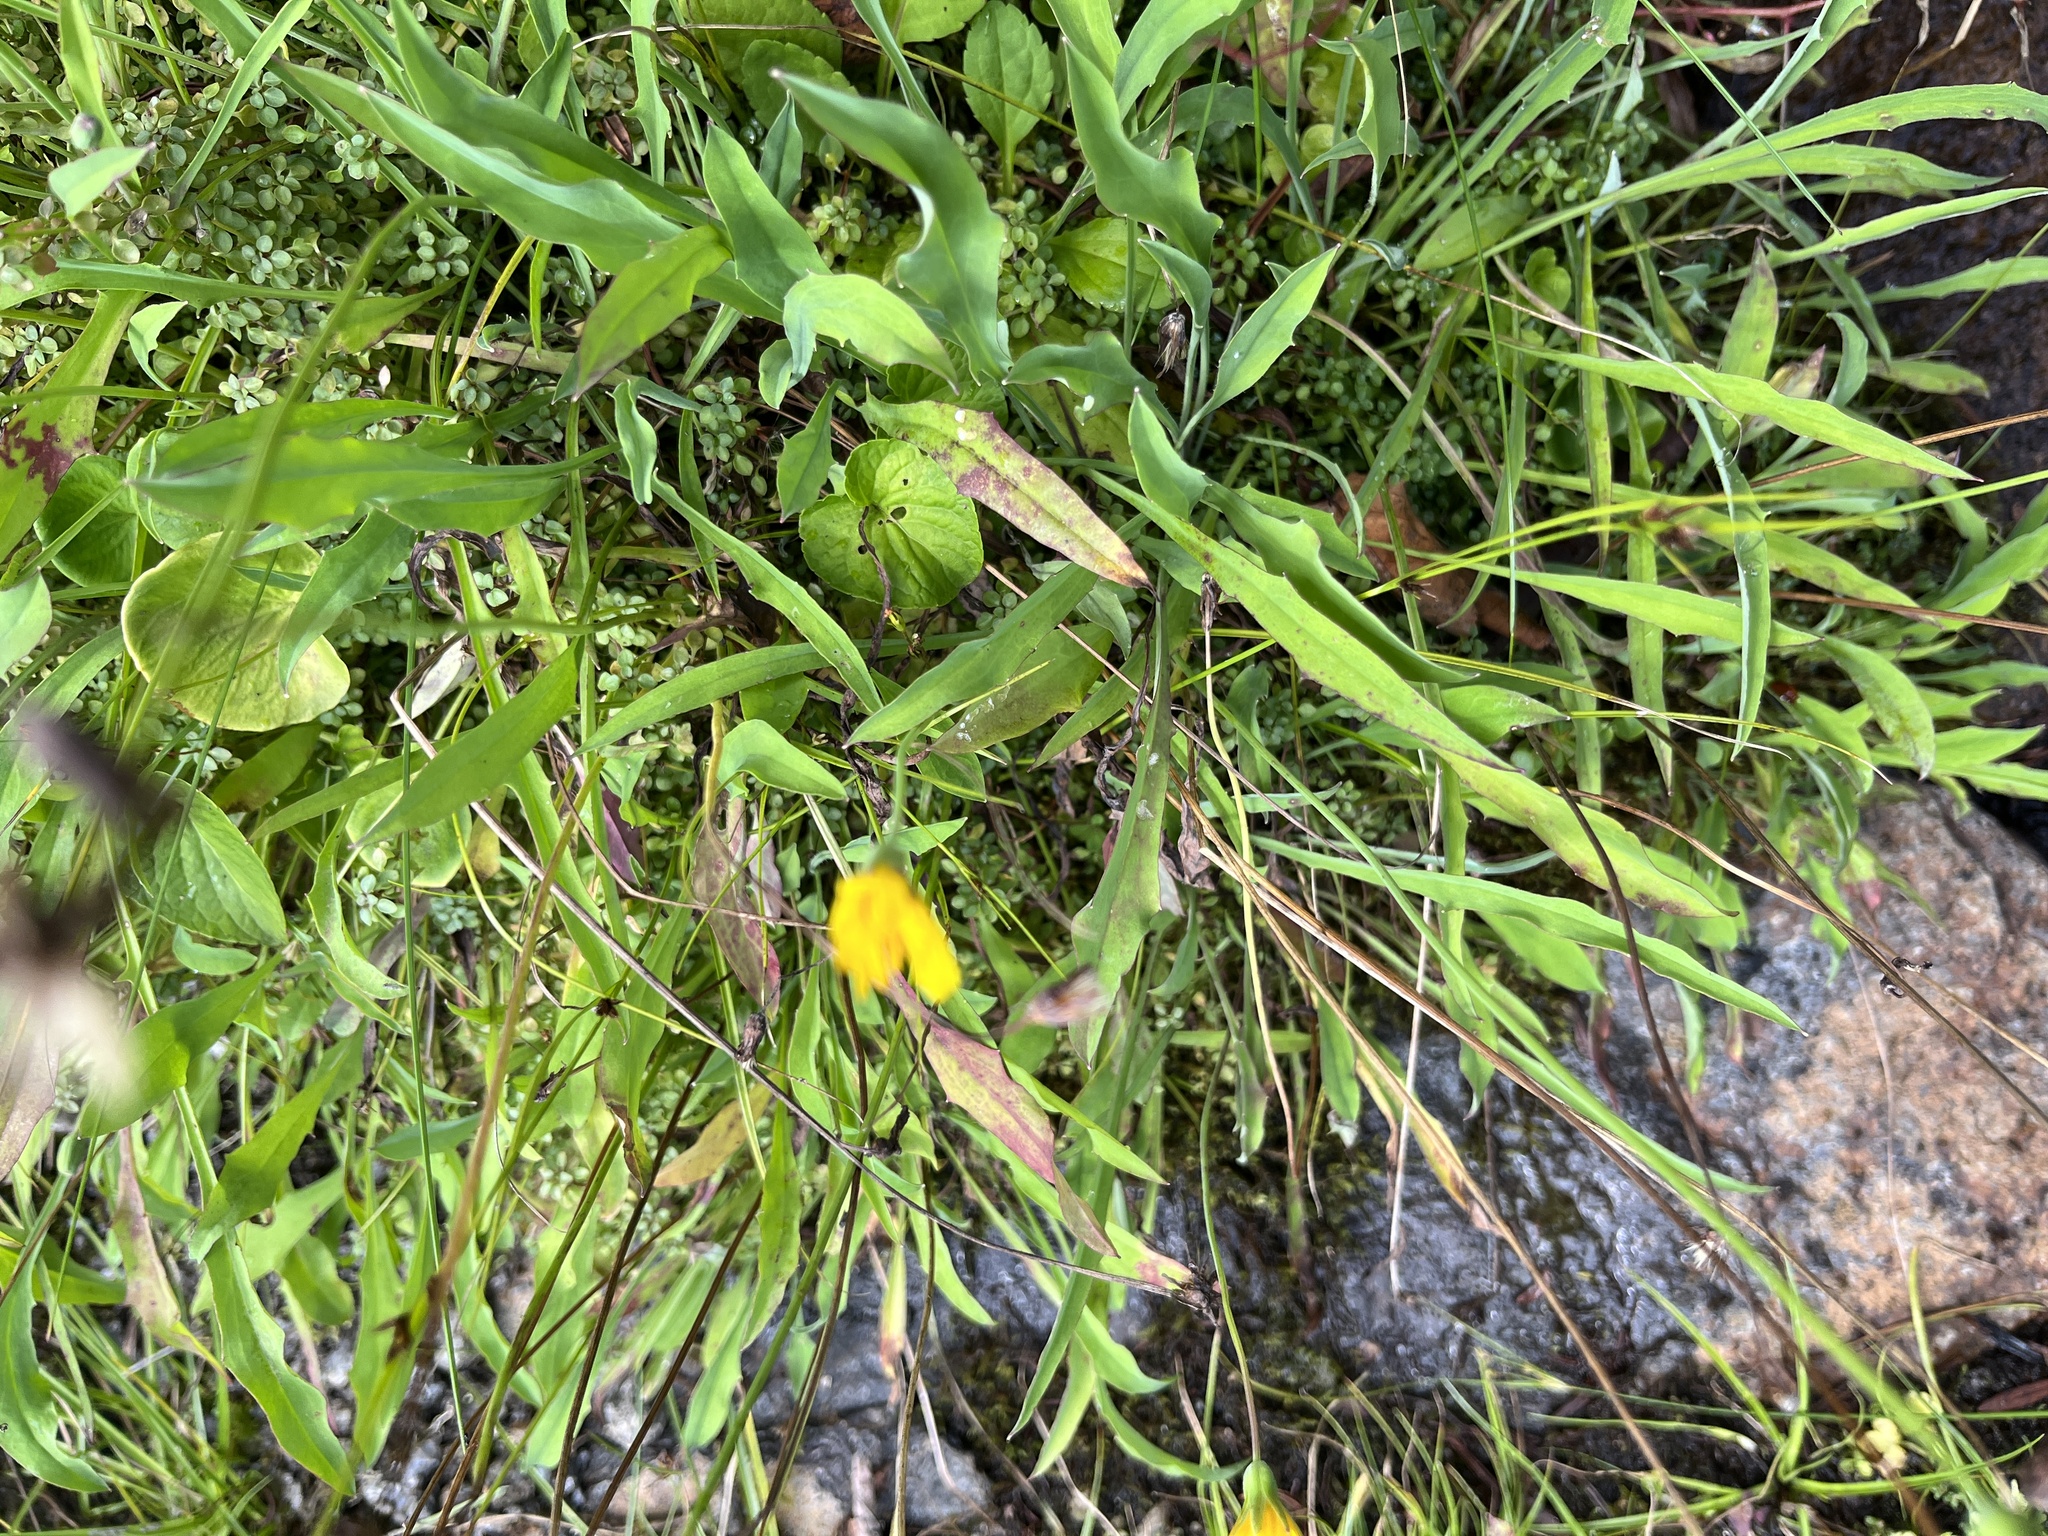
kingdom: Plantae
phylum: Tracheophyta
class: Magnoliopsida
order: Asterales
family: Asteraceae
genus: Krigia
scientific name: Krigia montana
